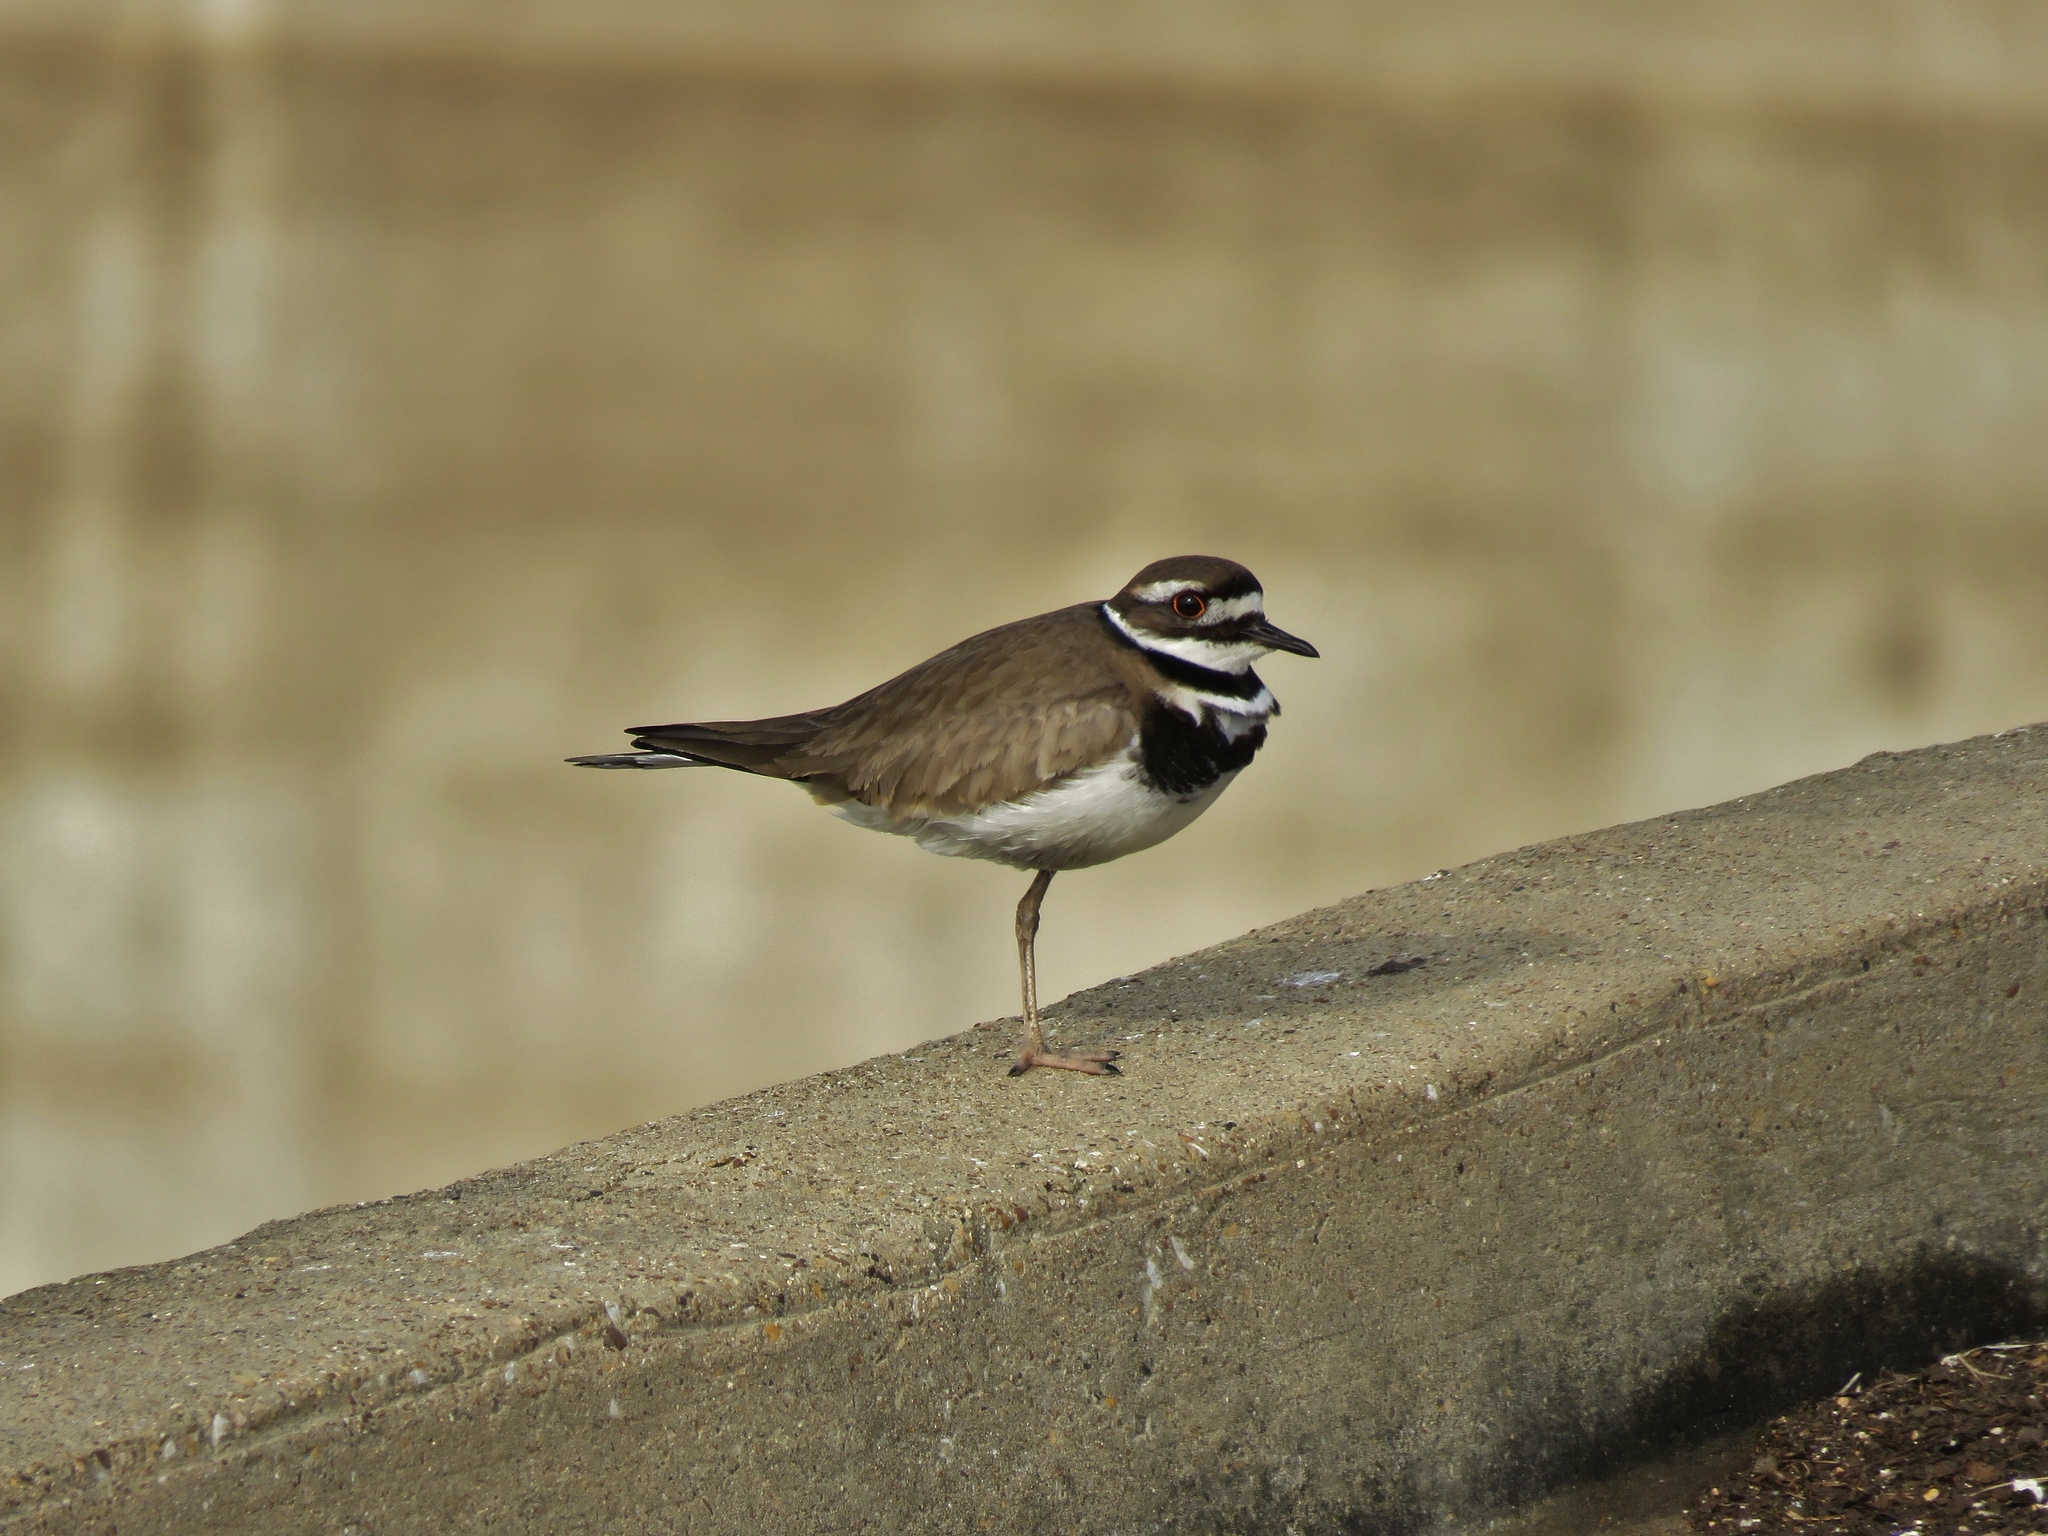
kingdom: Animalia
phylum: Chordata
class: Aves
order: Charadriiformes
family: Charadriidae
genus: Charadrius
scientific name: Charadrius vociferus
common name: Killdeer
